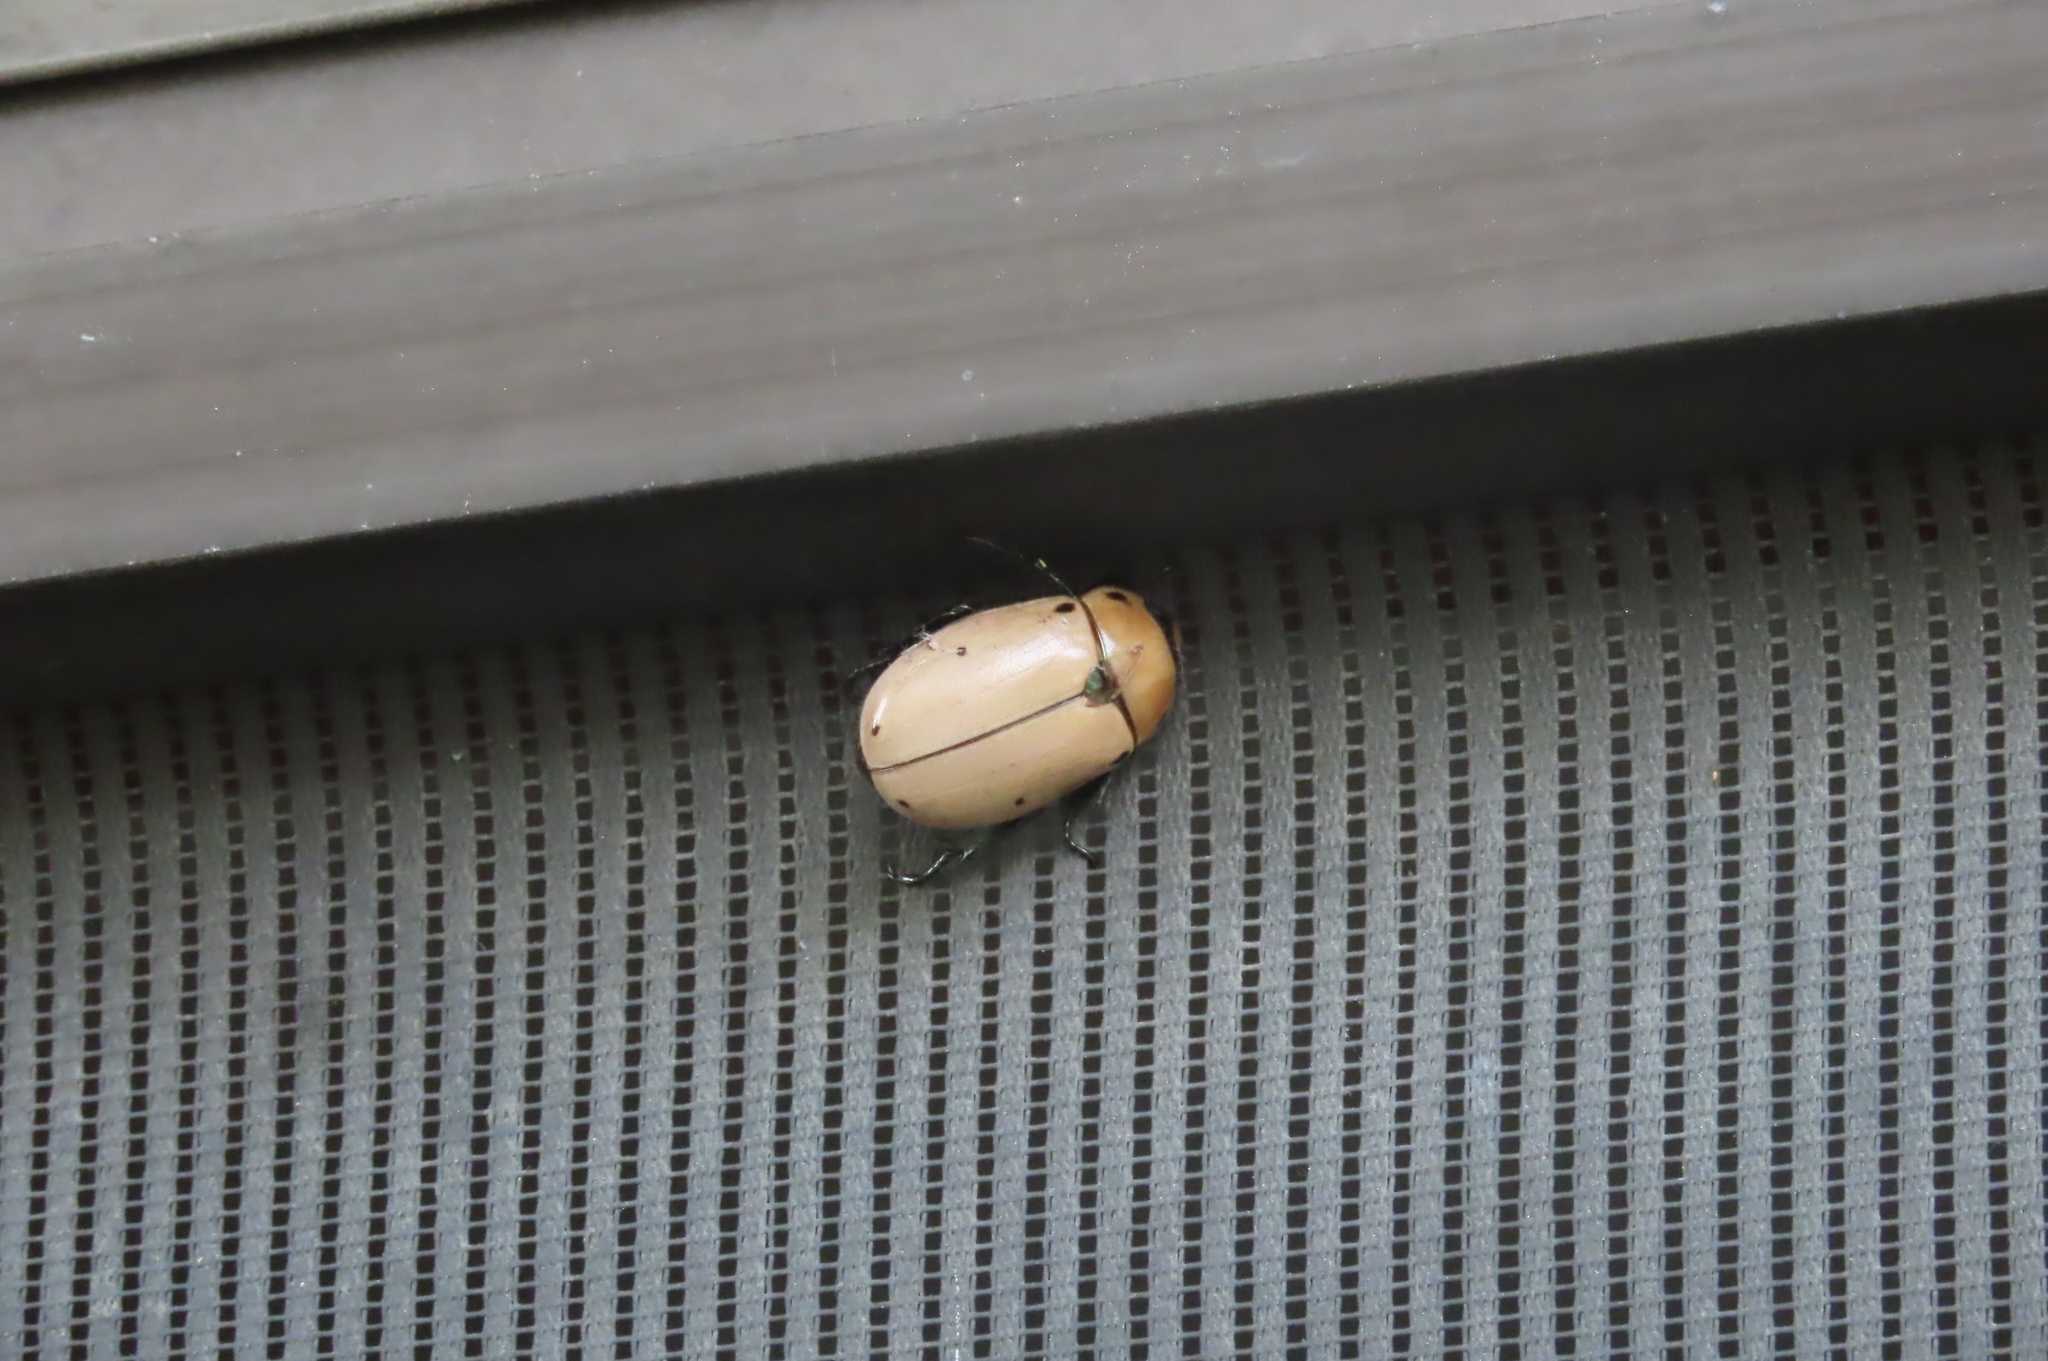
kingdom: Animalia
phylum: Arthropoda
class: Insecta
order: Coleoptera
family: Scarabaeidae
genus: Pelidnota
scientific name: Pelidnota punctata
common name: Grapevine beetle
